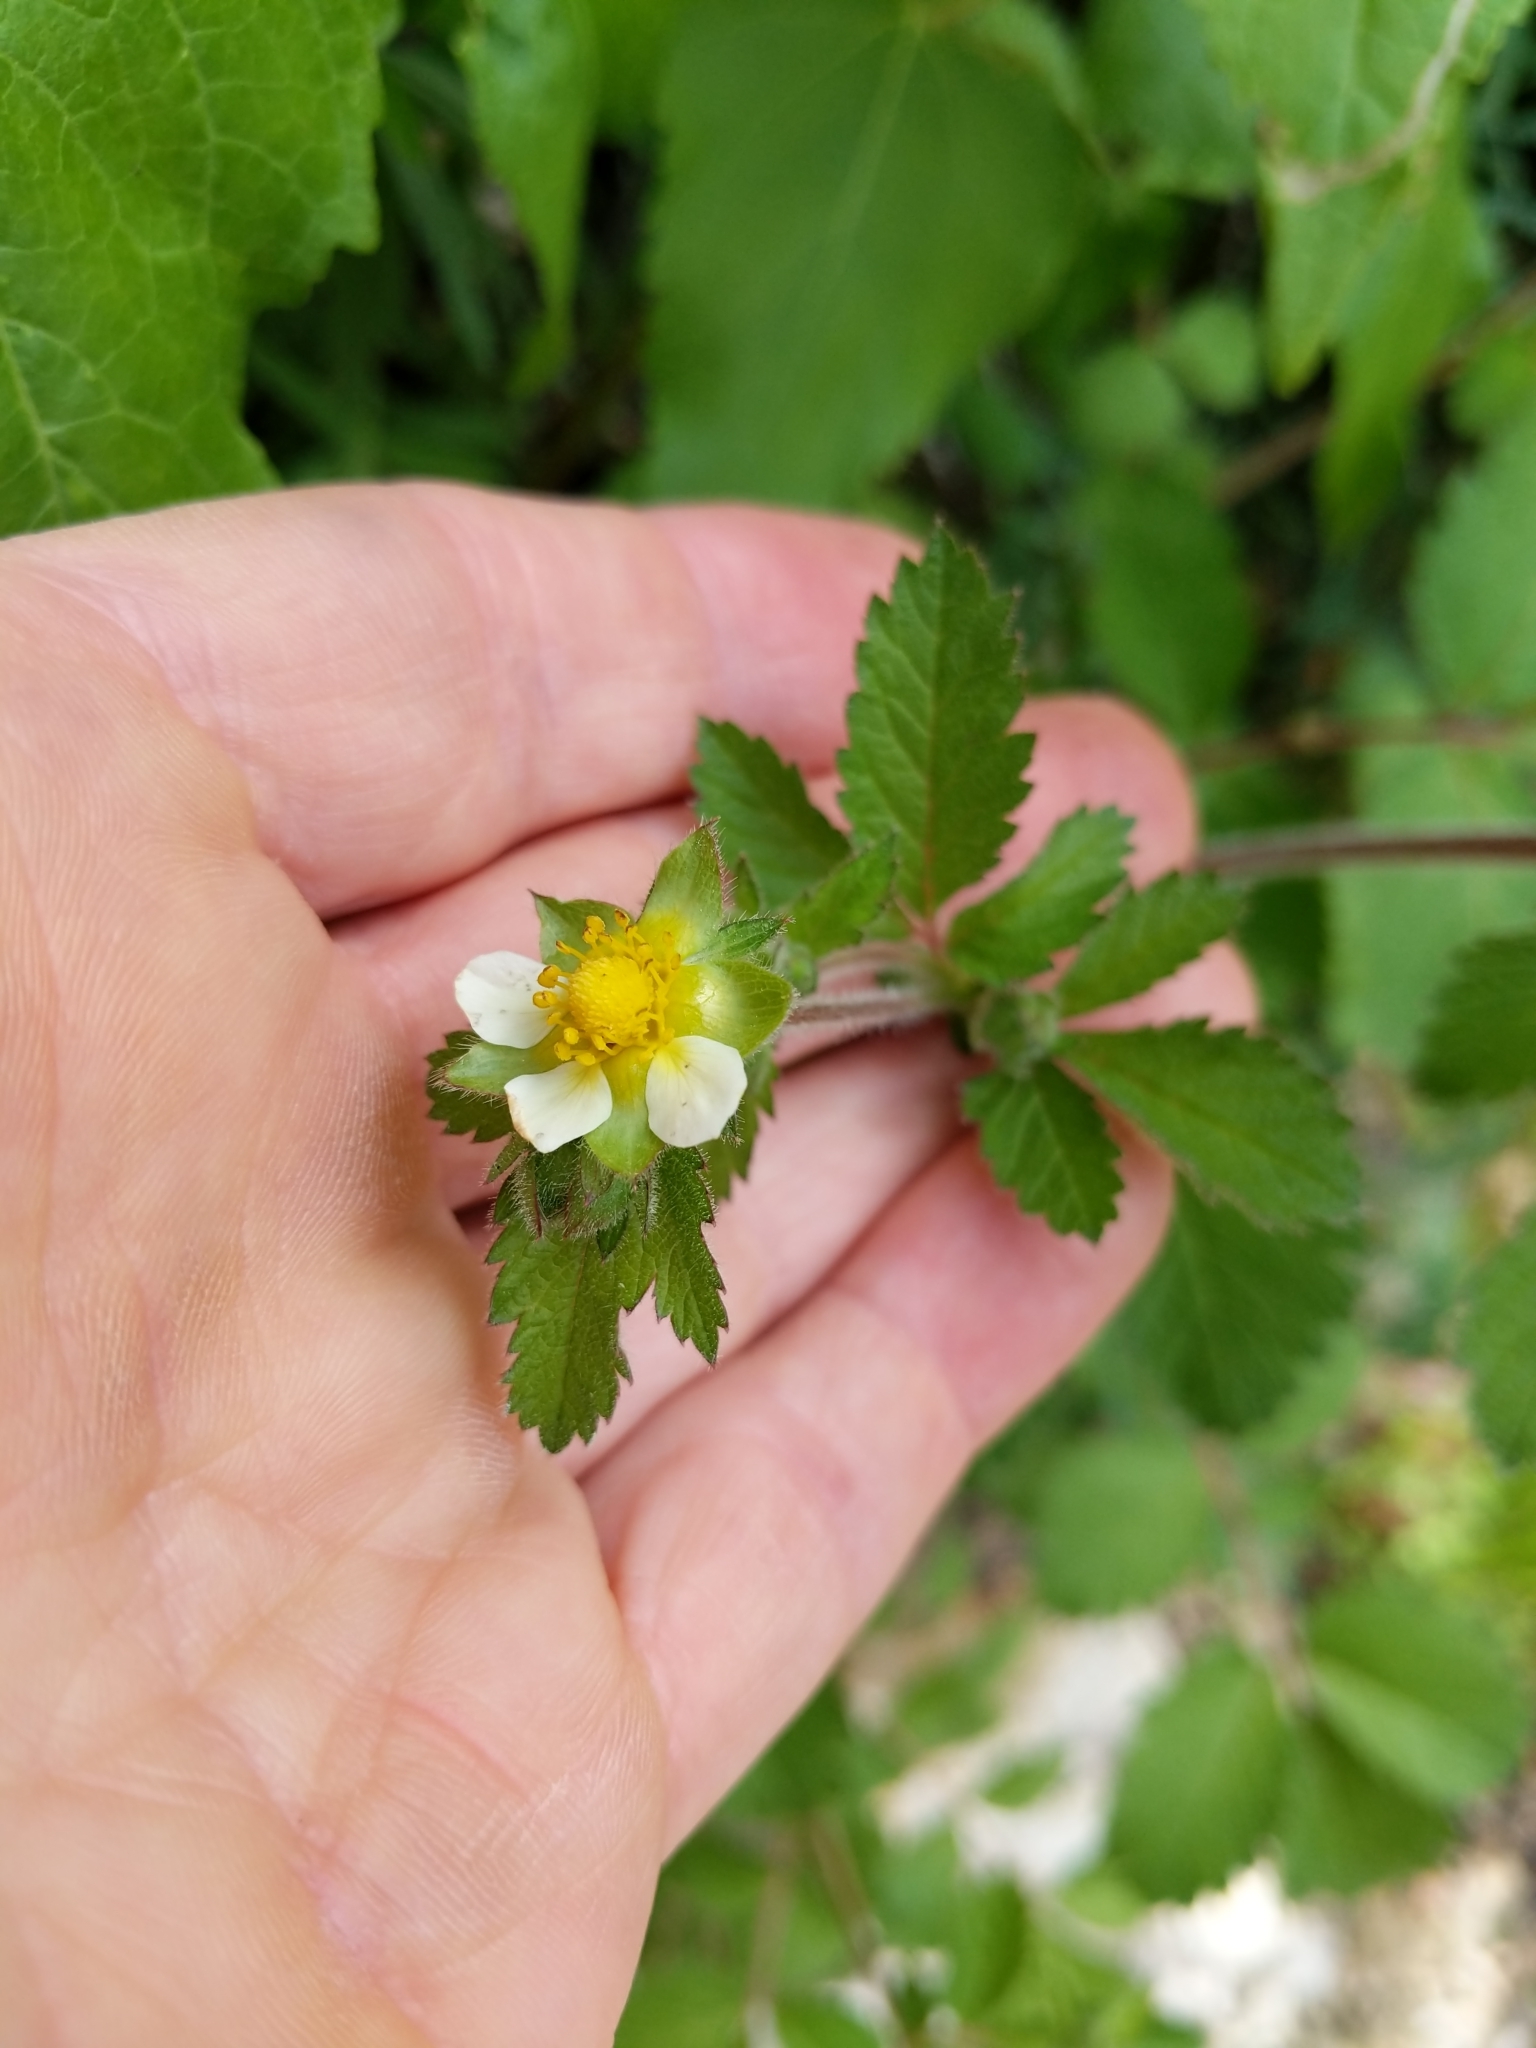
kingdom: Plantae
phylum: Tracheophyta
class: Magnoliopsida
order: Rosales
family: Rosaceae
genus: Drymocallis
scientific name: Drymocallis glandulosa
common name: Sticky cinquefoil
